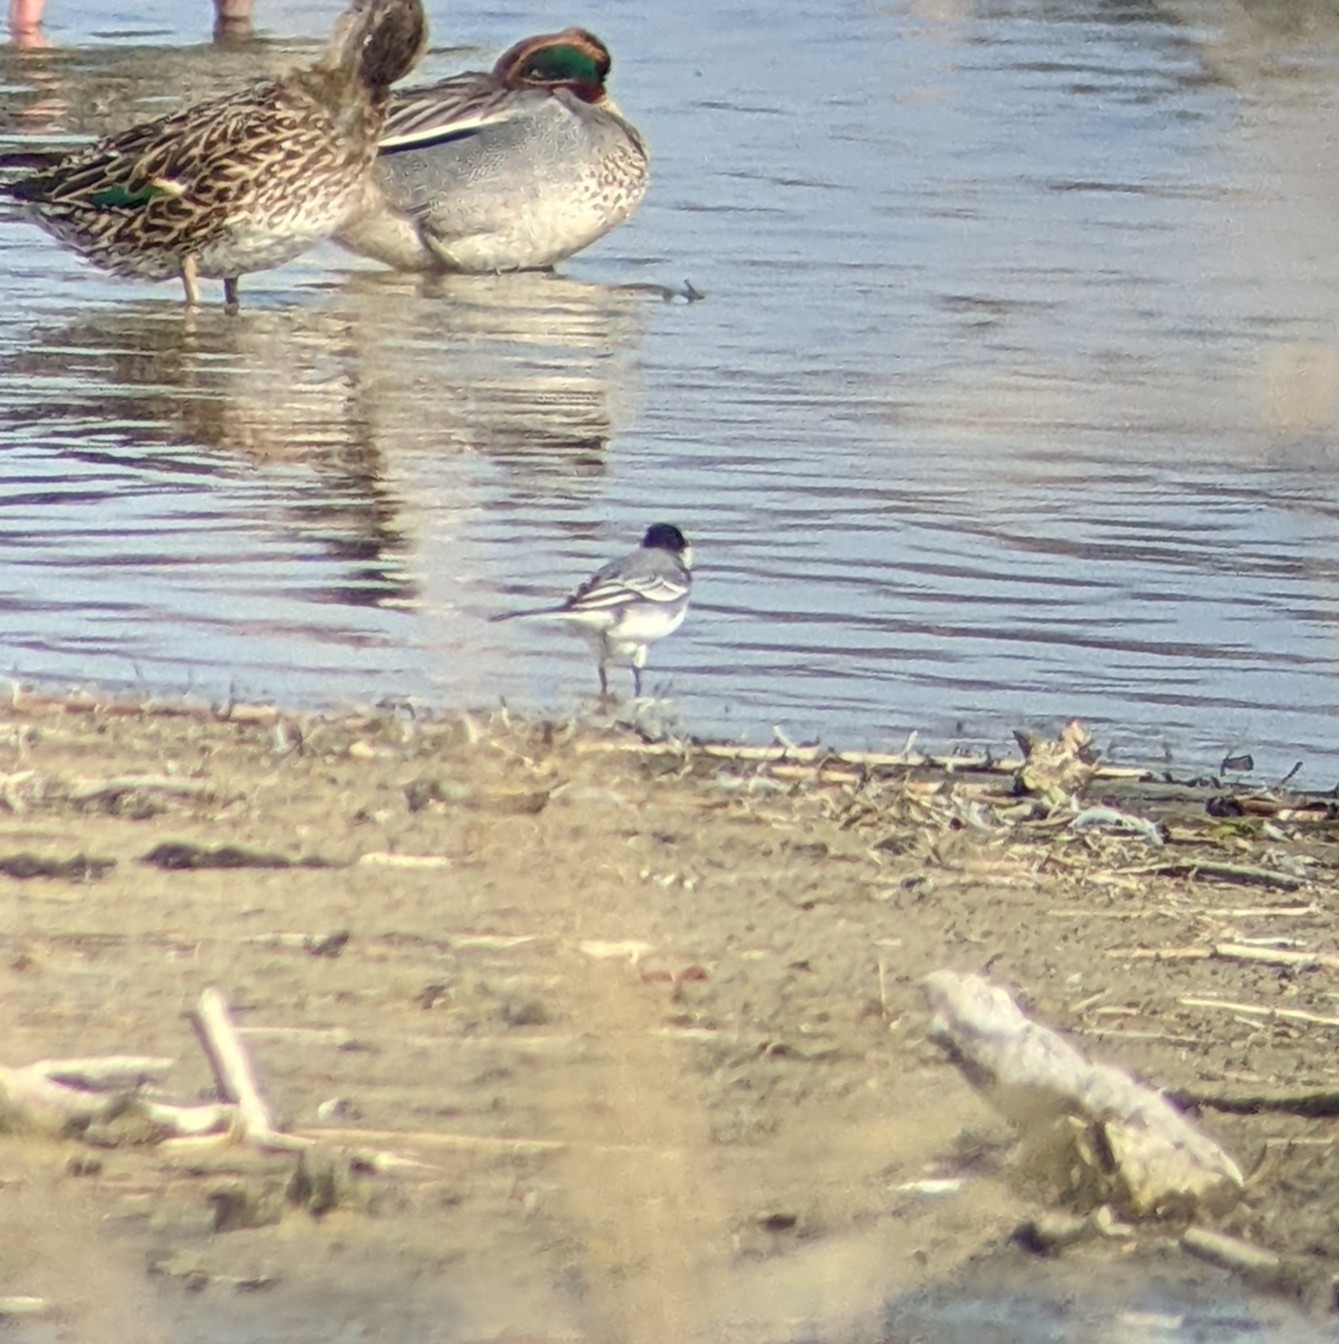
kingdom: Animalia
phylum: Chordata
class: Aves
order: Passeriformes
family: Motacillidae
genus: Motacilla
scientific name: Motacilla alba
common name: White wagtail
